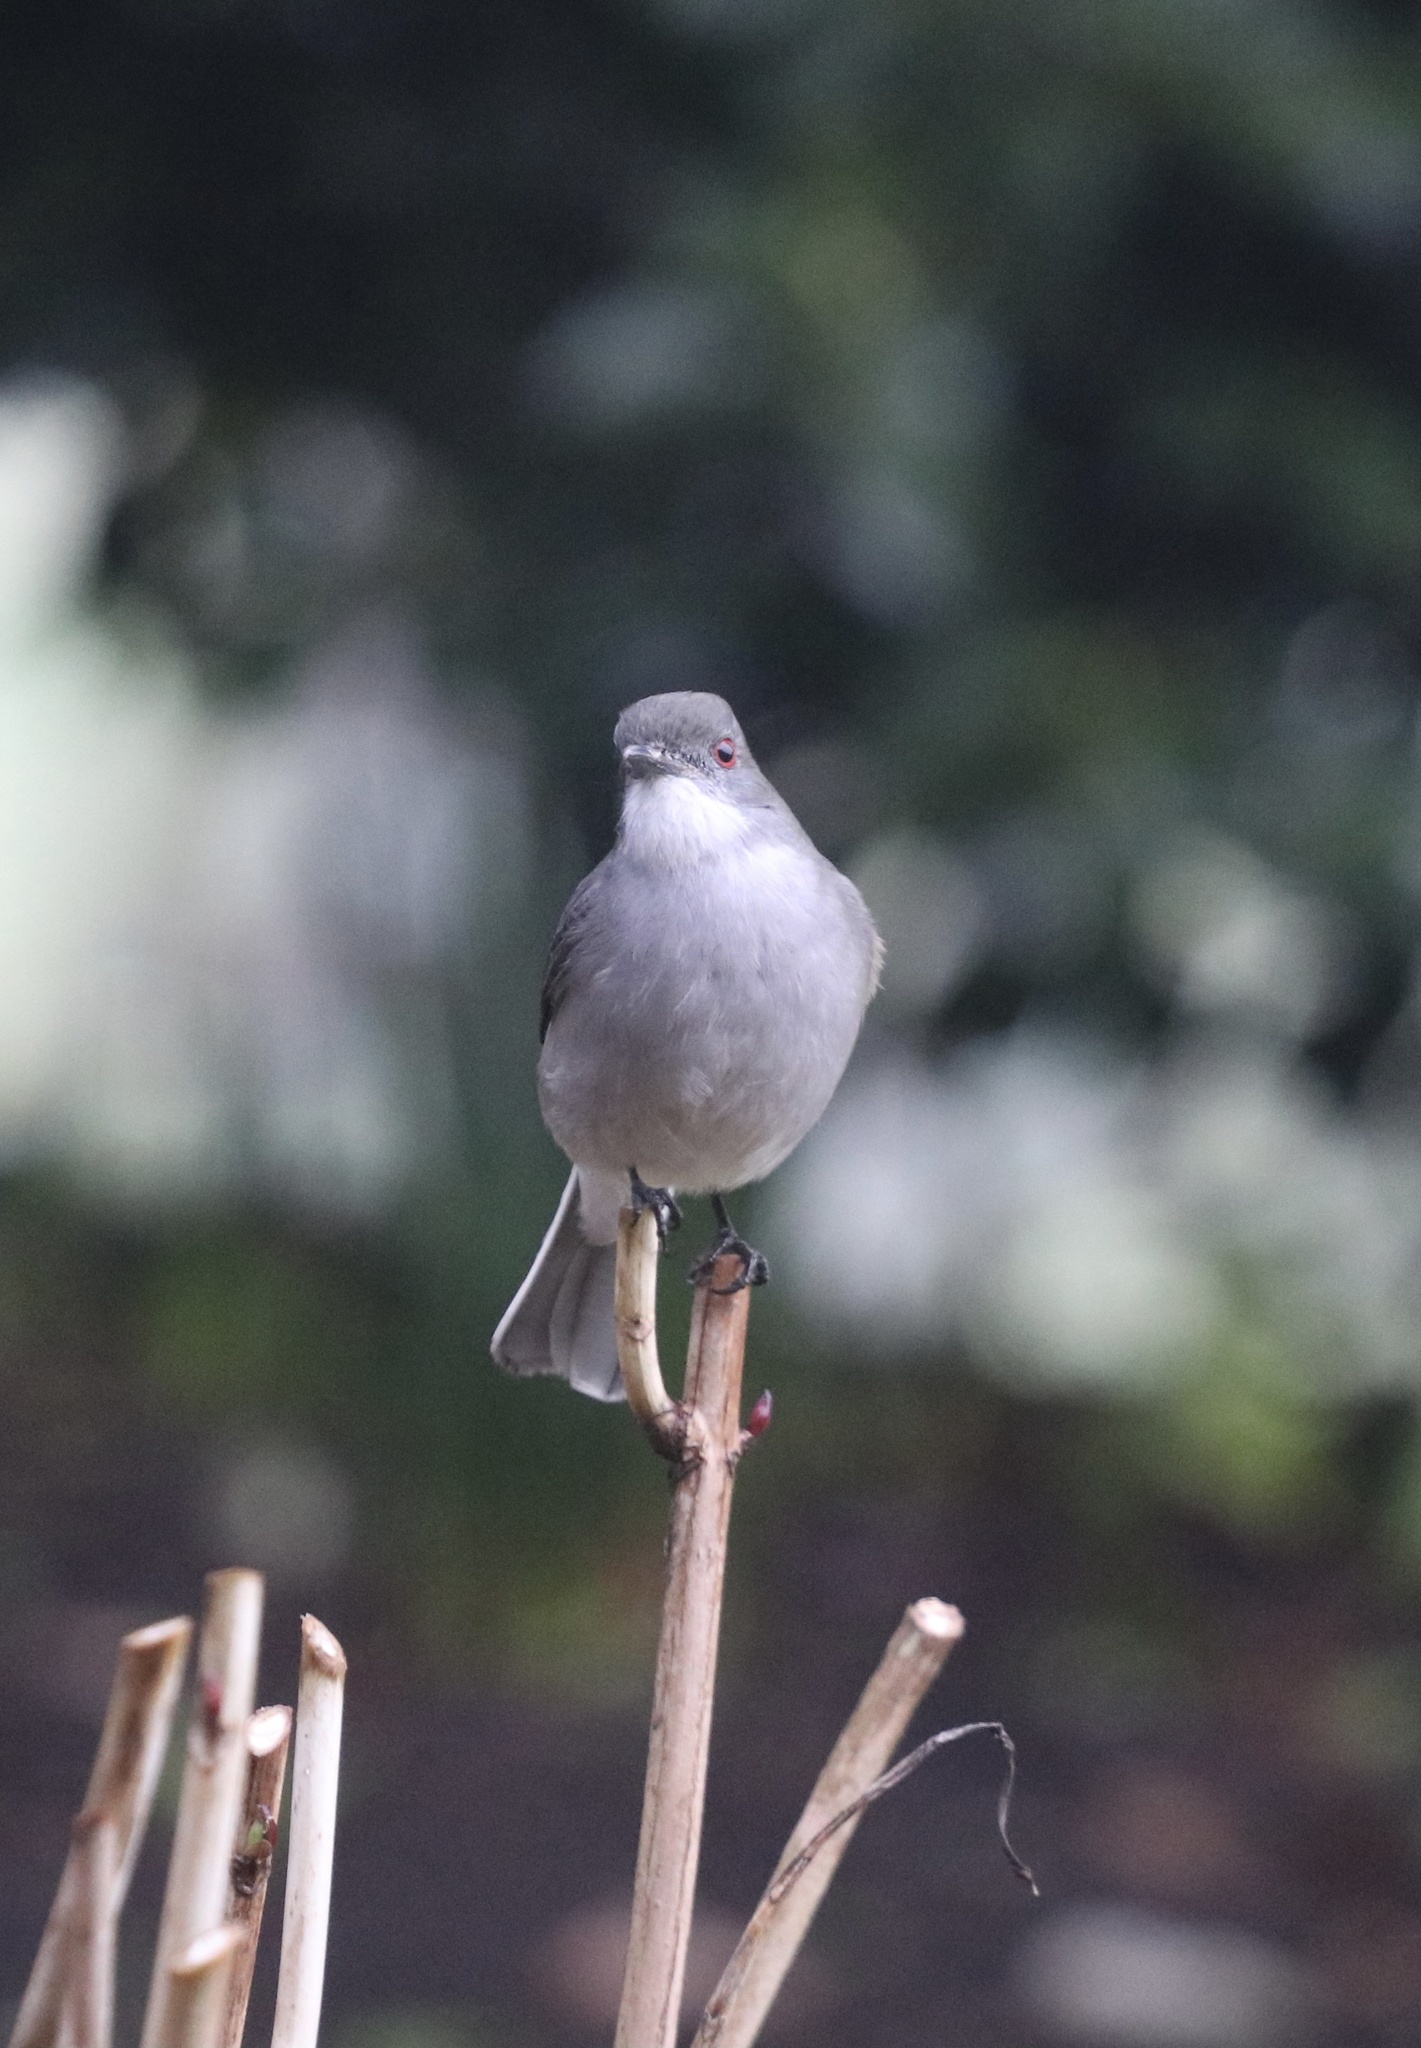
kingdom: Animalia
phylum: Chordata
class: Aves
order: Passeriformes
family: Tyrannidae
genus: Xolmis
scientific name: Xolmis pyrope
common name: Fire-eyed diucon
